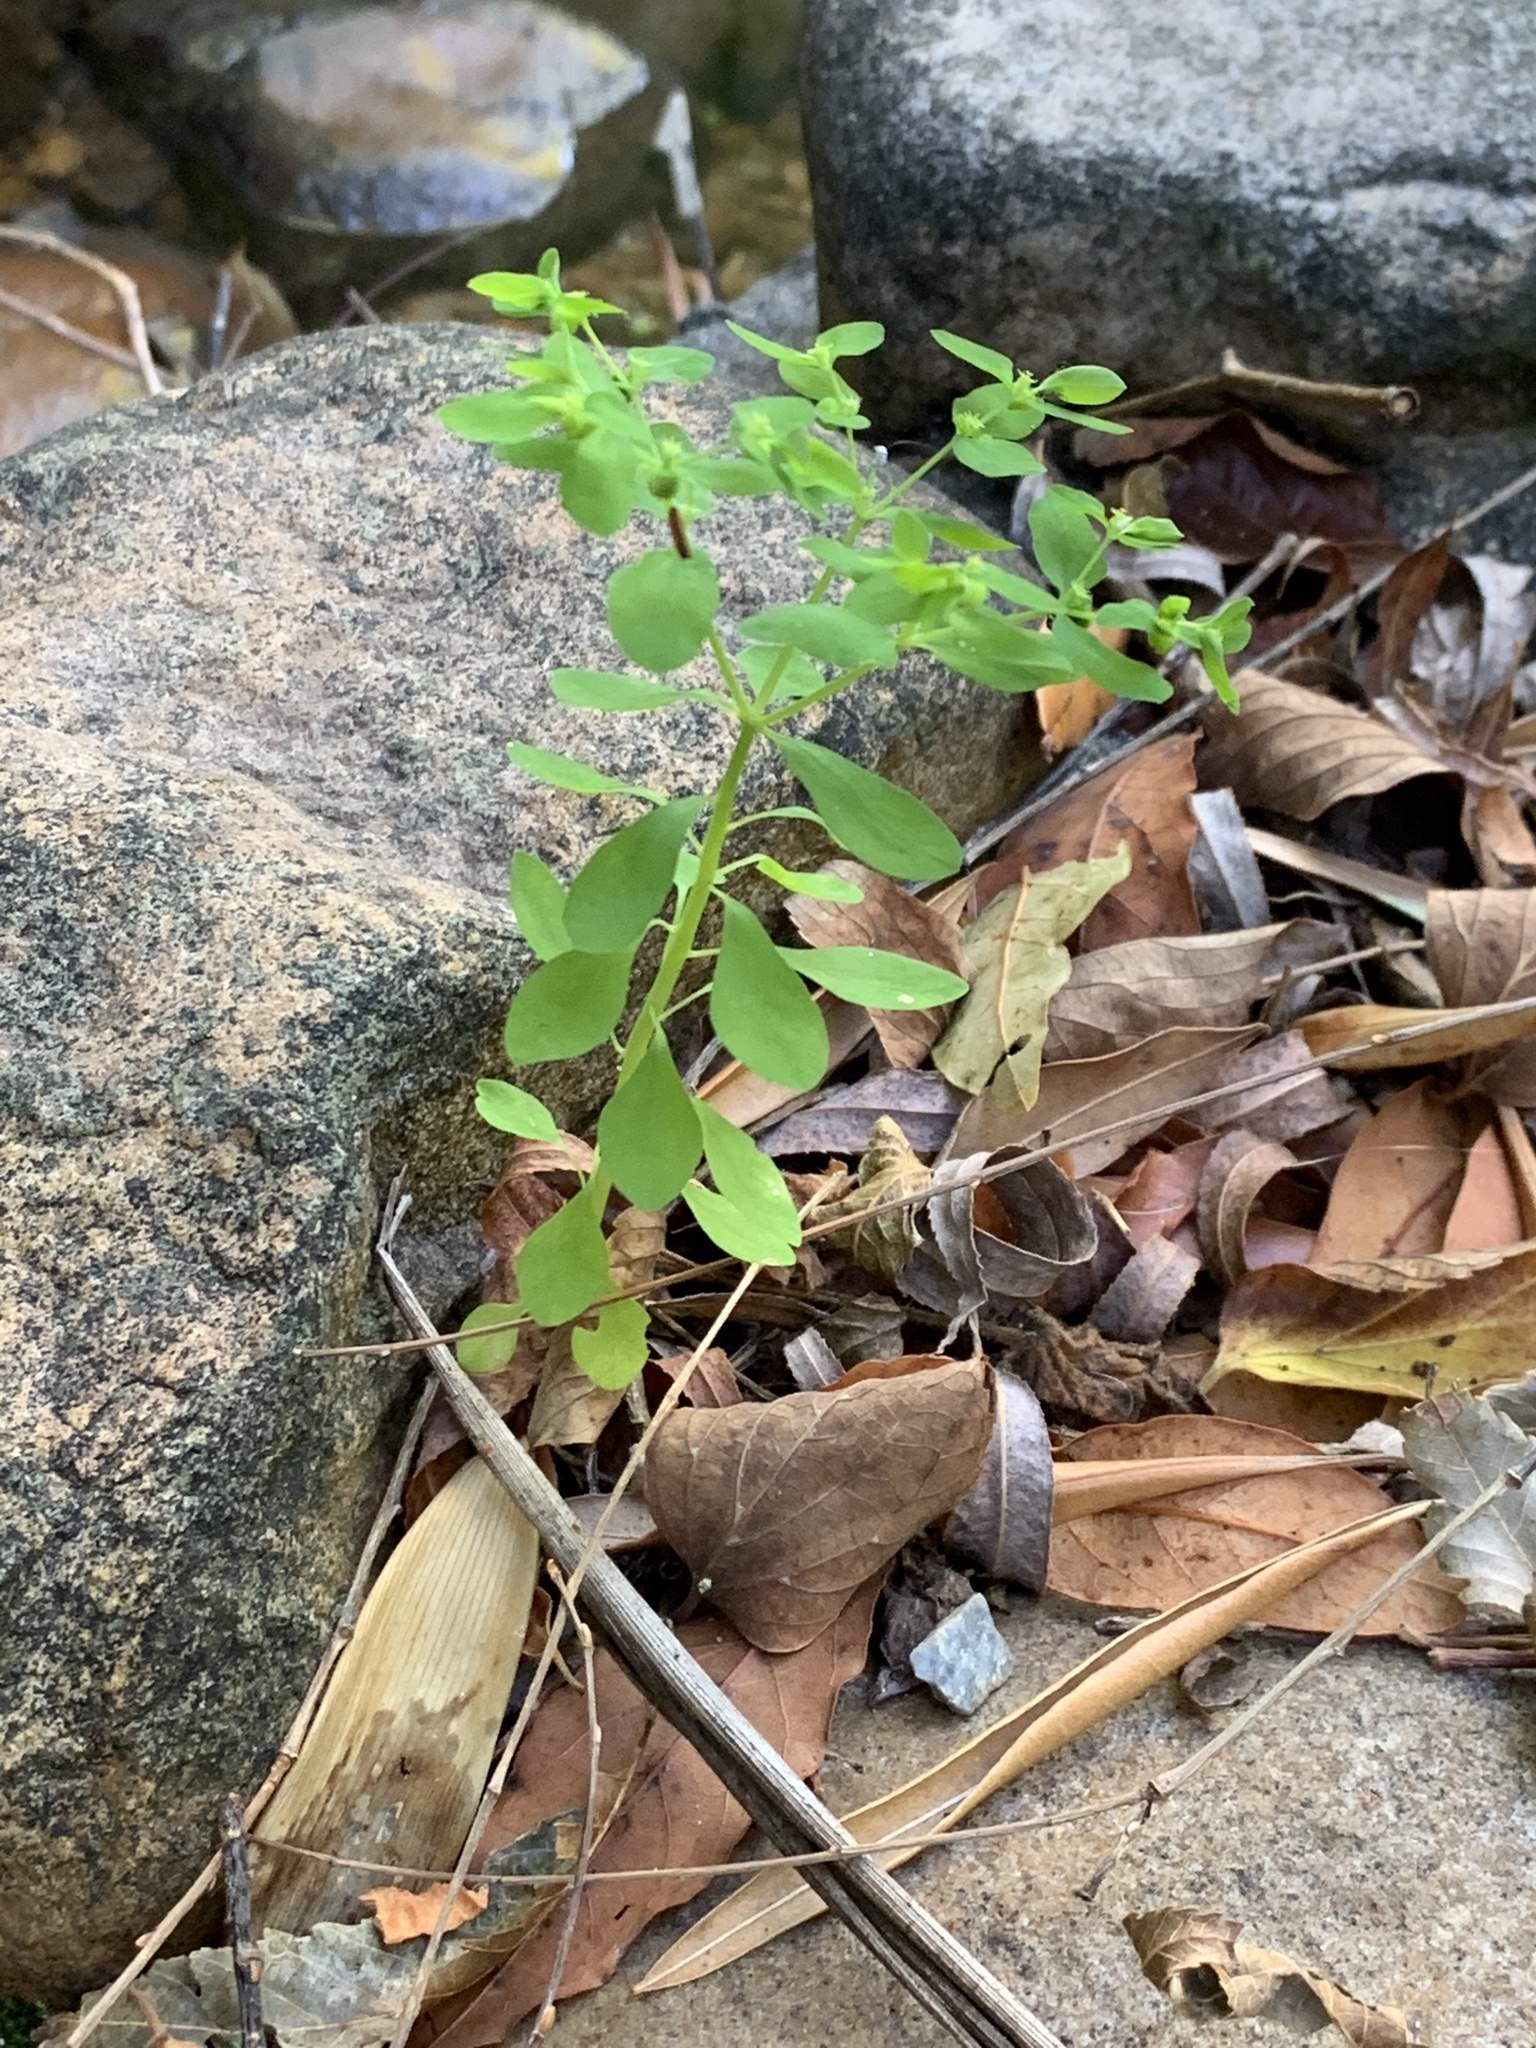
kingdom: Plantae
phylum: Tracheophyta
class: Magnoliopsida
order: Malpighiales
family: Euphorbiaceae
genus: Euphorbia
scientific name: Euphorbia peplus
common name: Petty spurge
